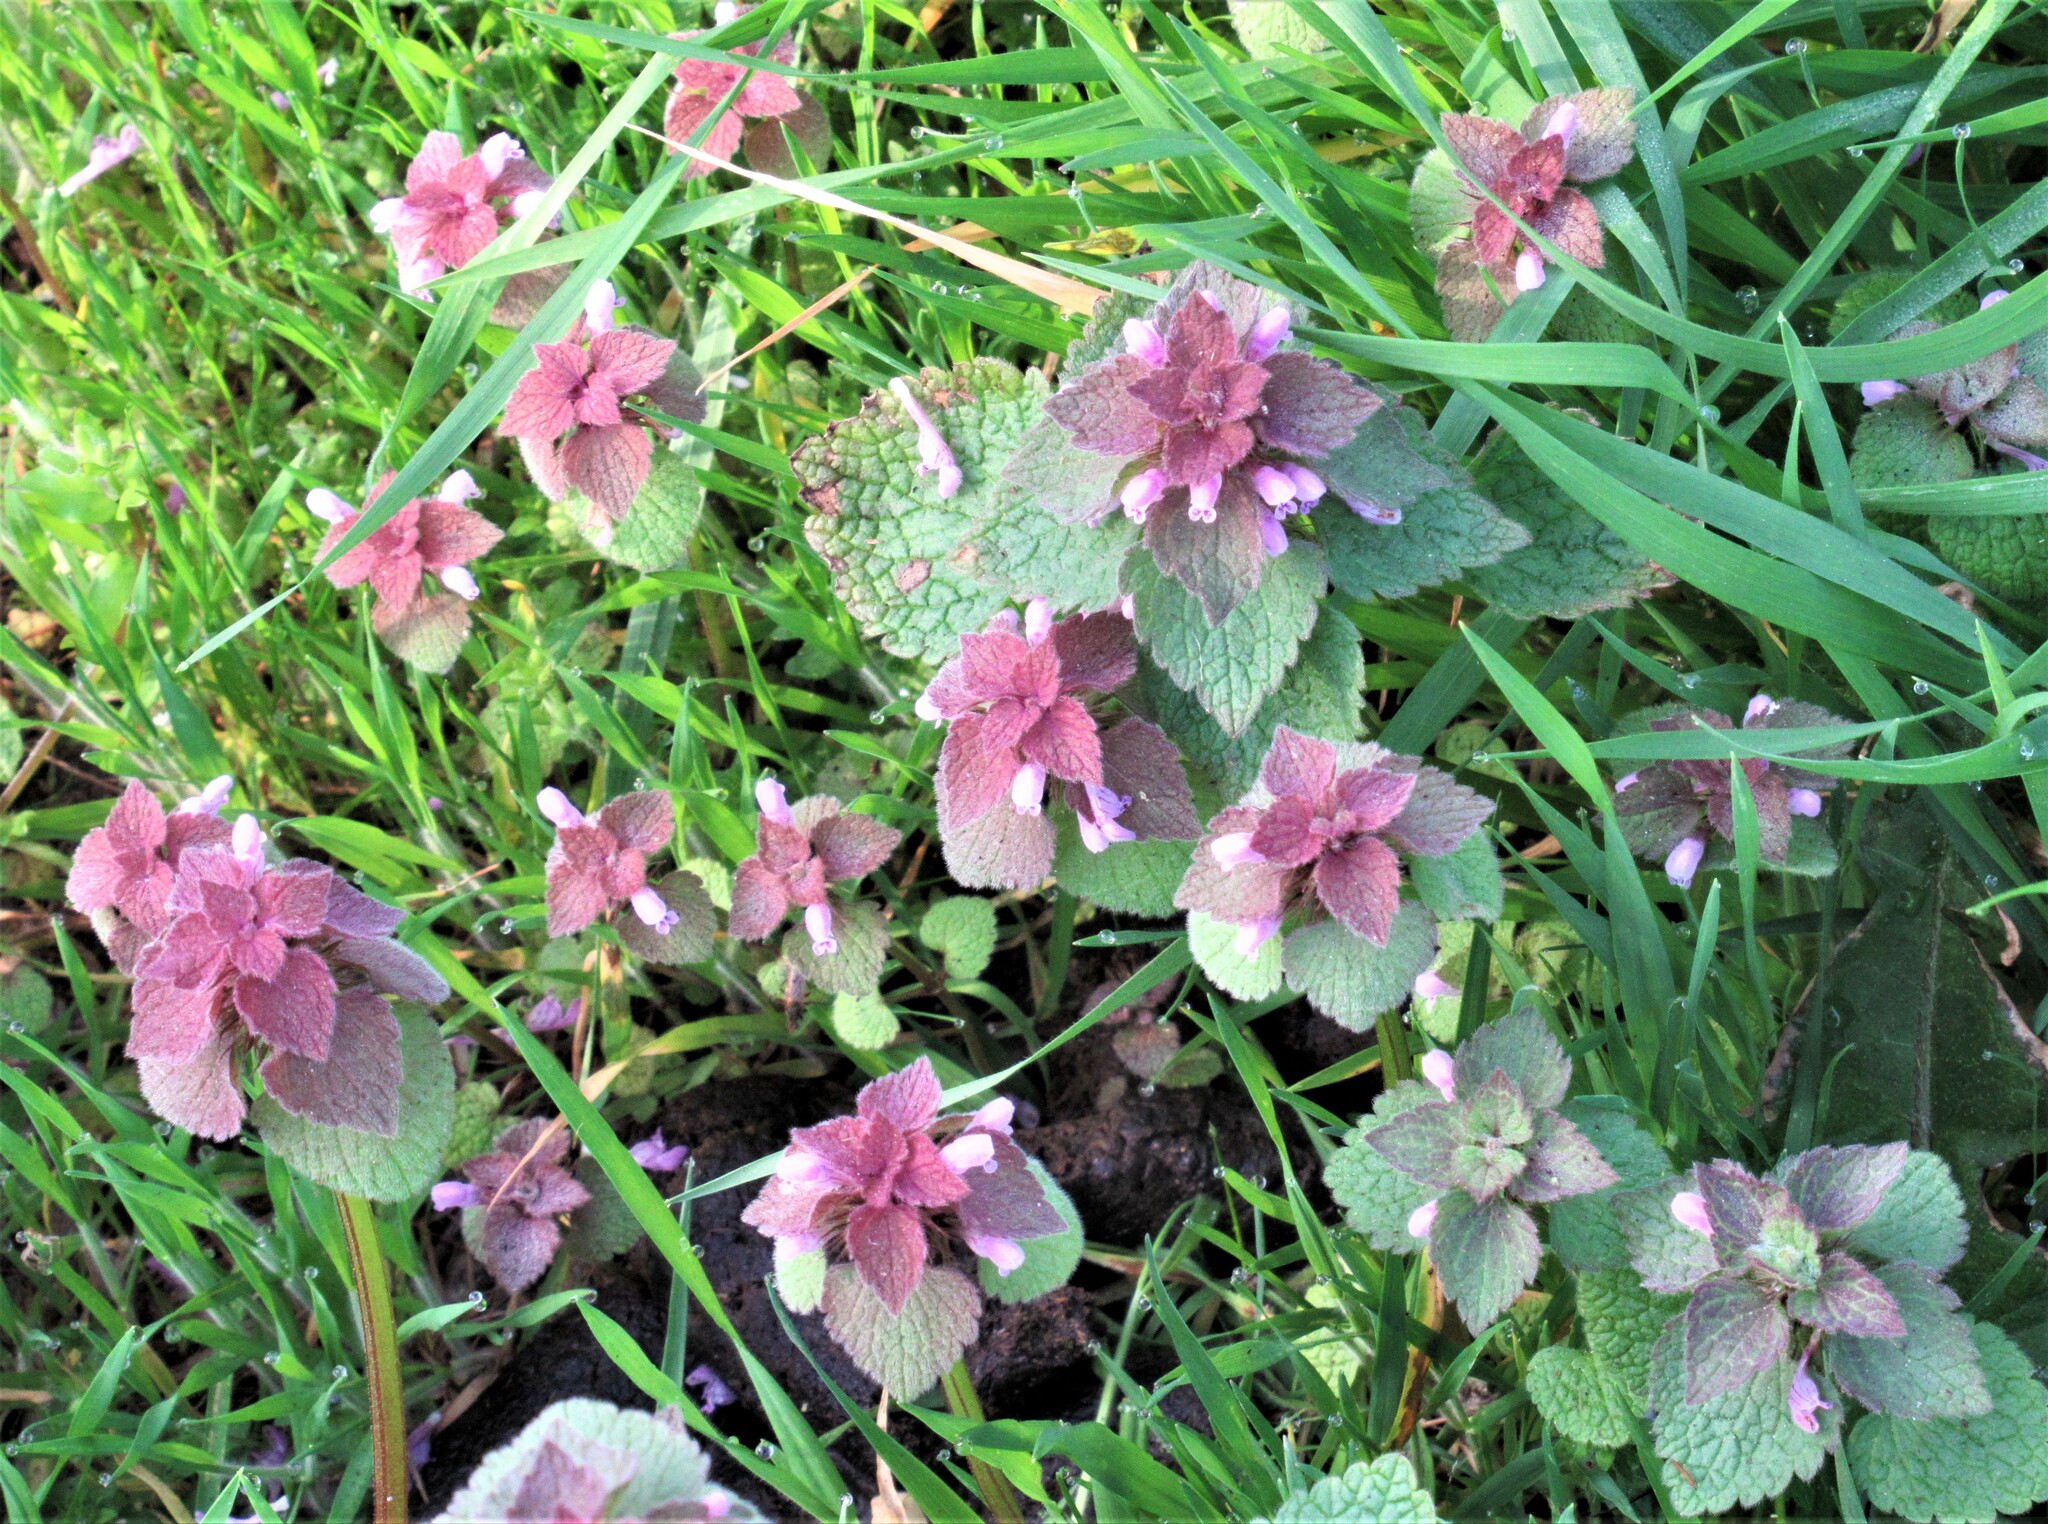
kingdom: Plantae
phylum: Tracheophyta
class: Magnoliopsida
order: Lamiales
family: Lamiaceae
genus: Lamium
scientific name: Lamium purpureum
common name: Red dead-nettle
